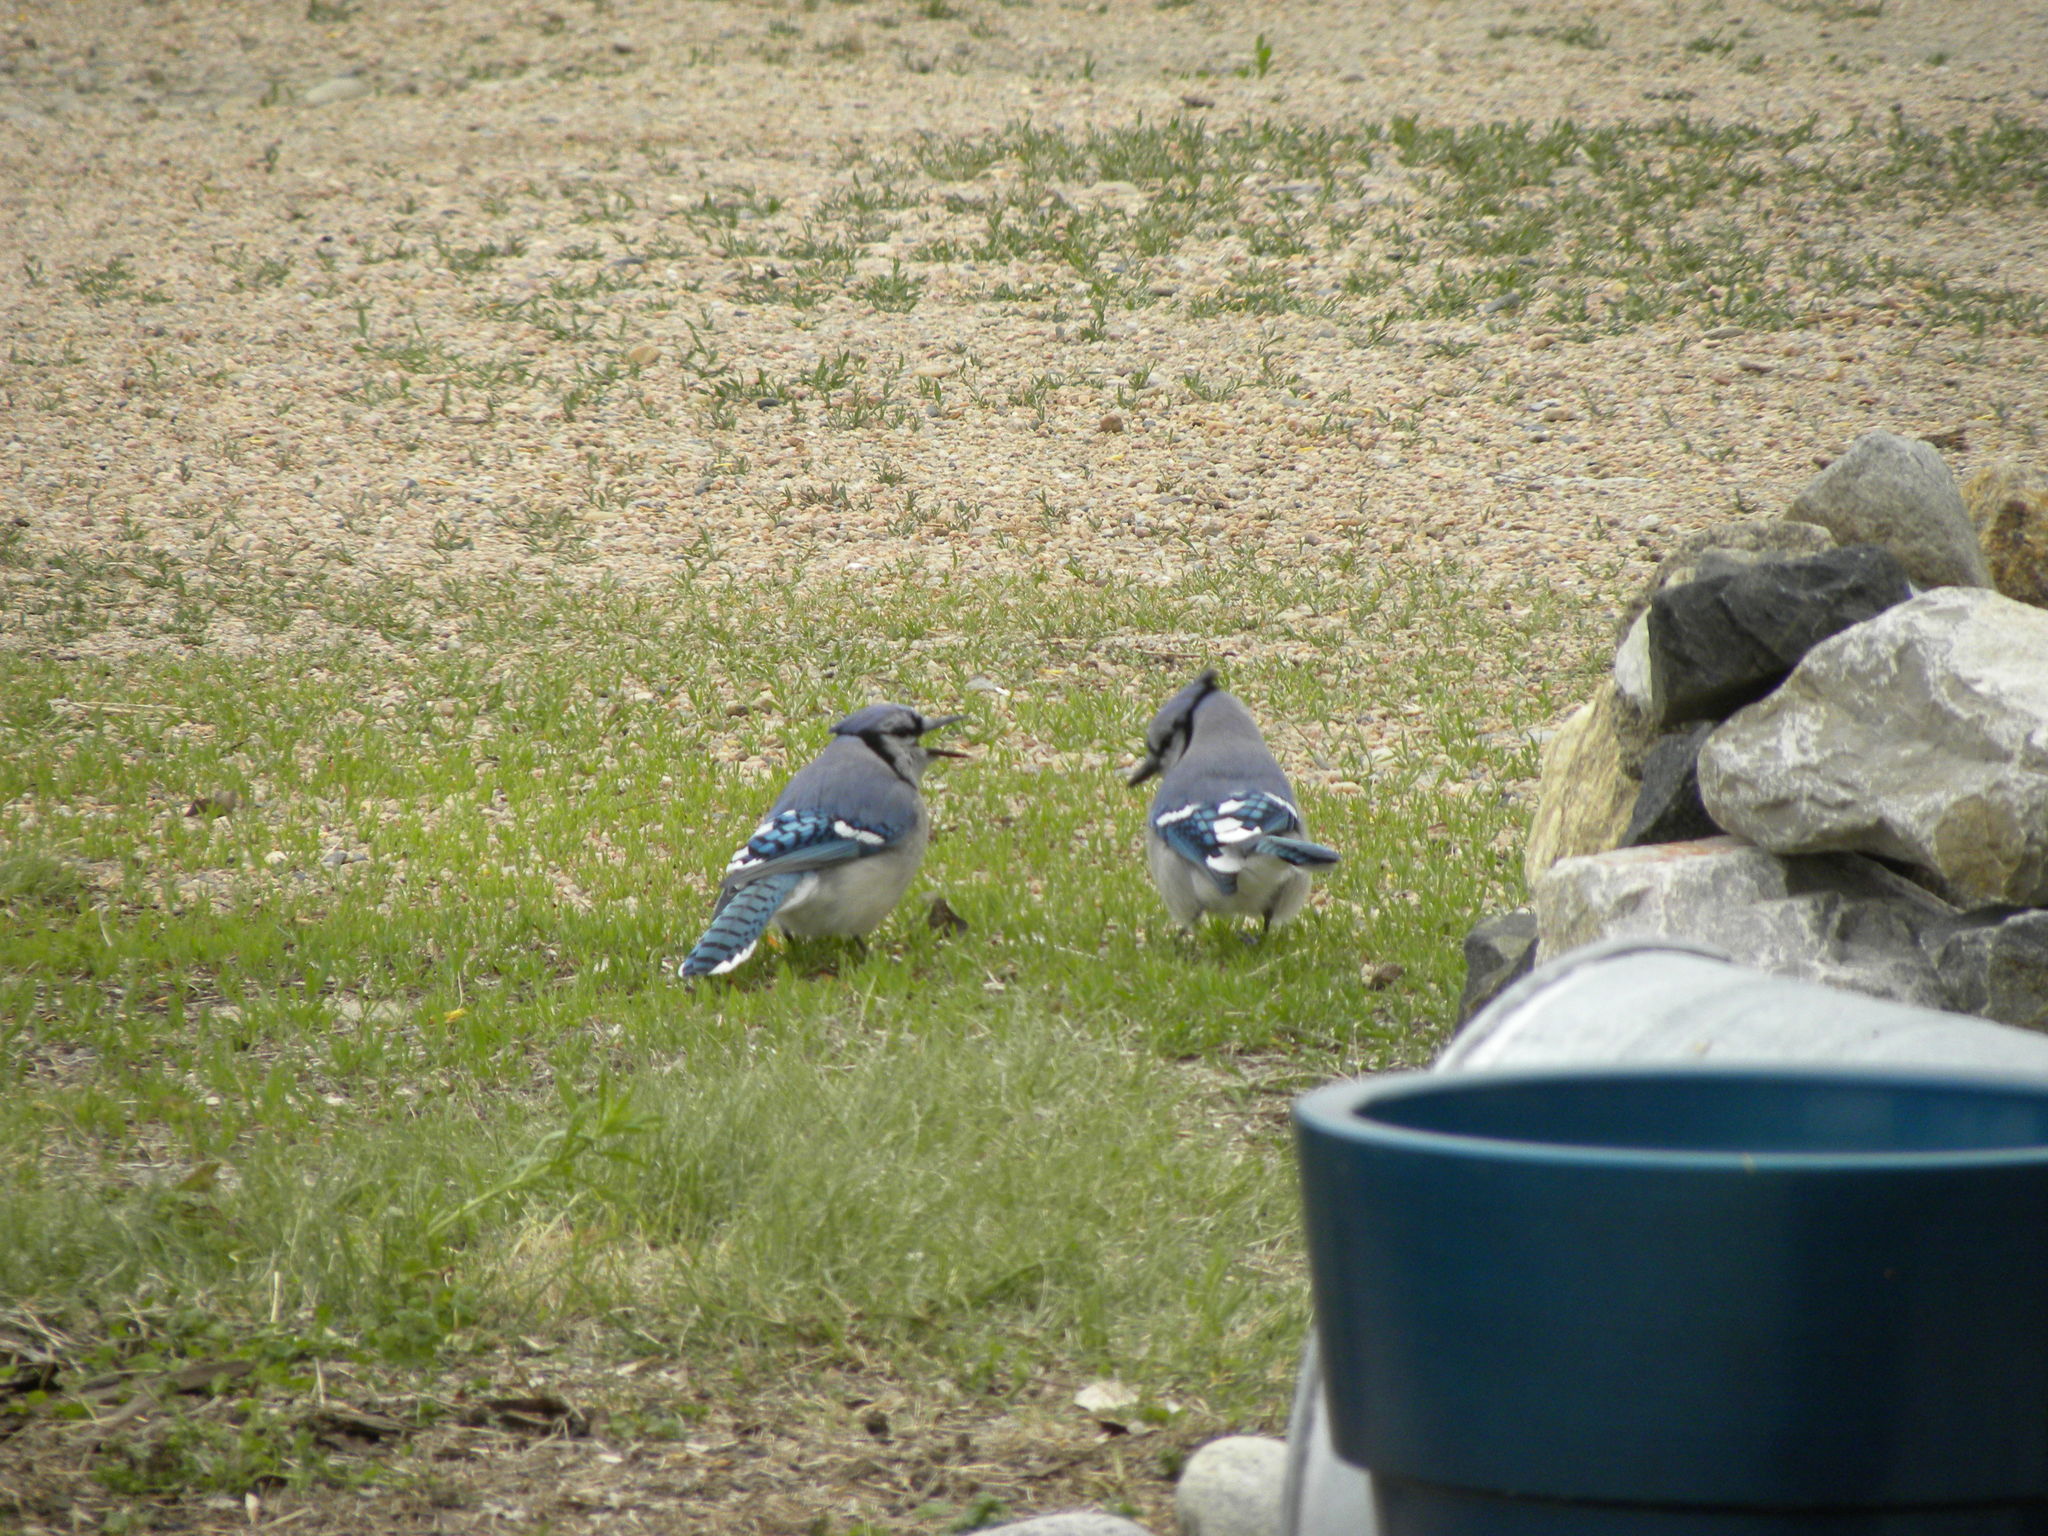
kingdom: Animalia
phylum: Chordata
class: Aves
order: Passeriformes
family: Corvidae
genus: Cyanocitta
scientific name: Cyanocitta cristata
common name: Blue jay
